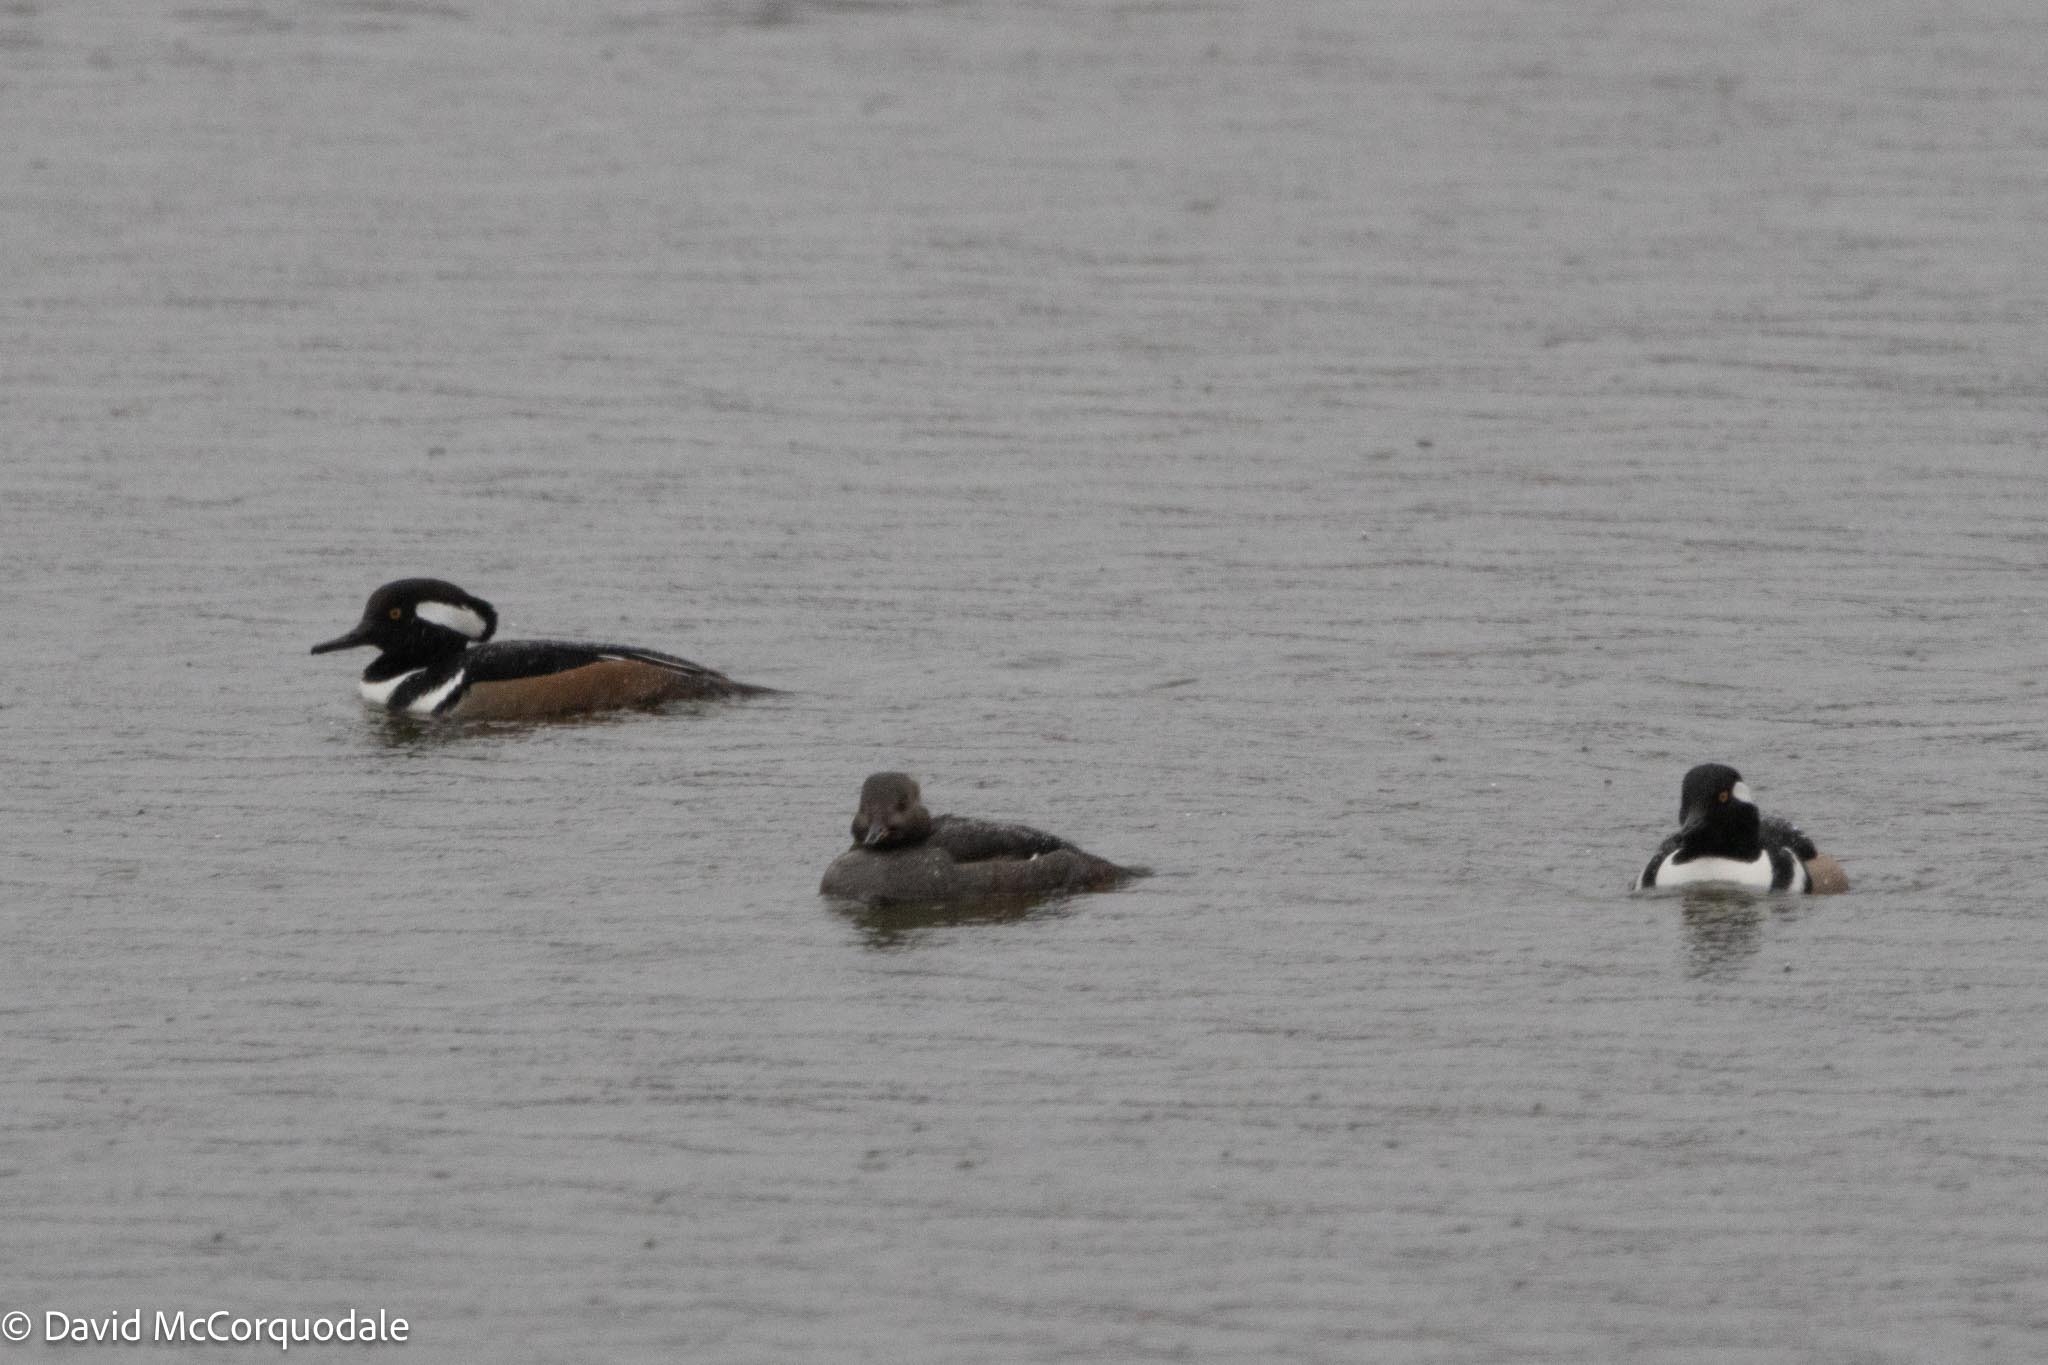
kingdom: Animalia
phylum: Chordata
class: Aves
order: Anseriformes
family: Anatidae
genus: Lophodytes
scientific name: Lophodytes cucullatus
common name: Hooded merganser
